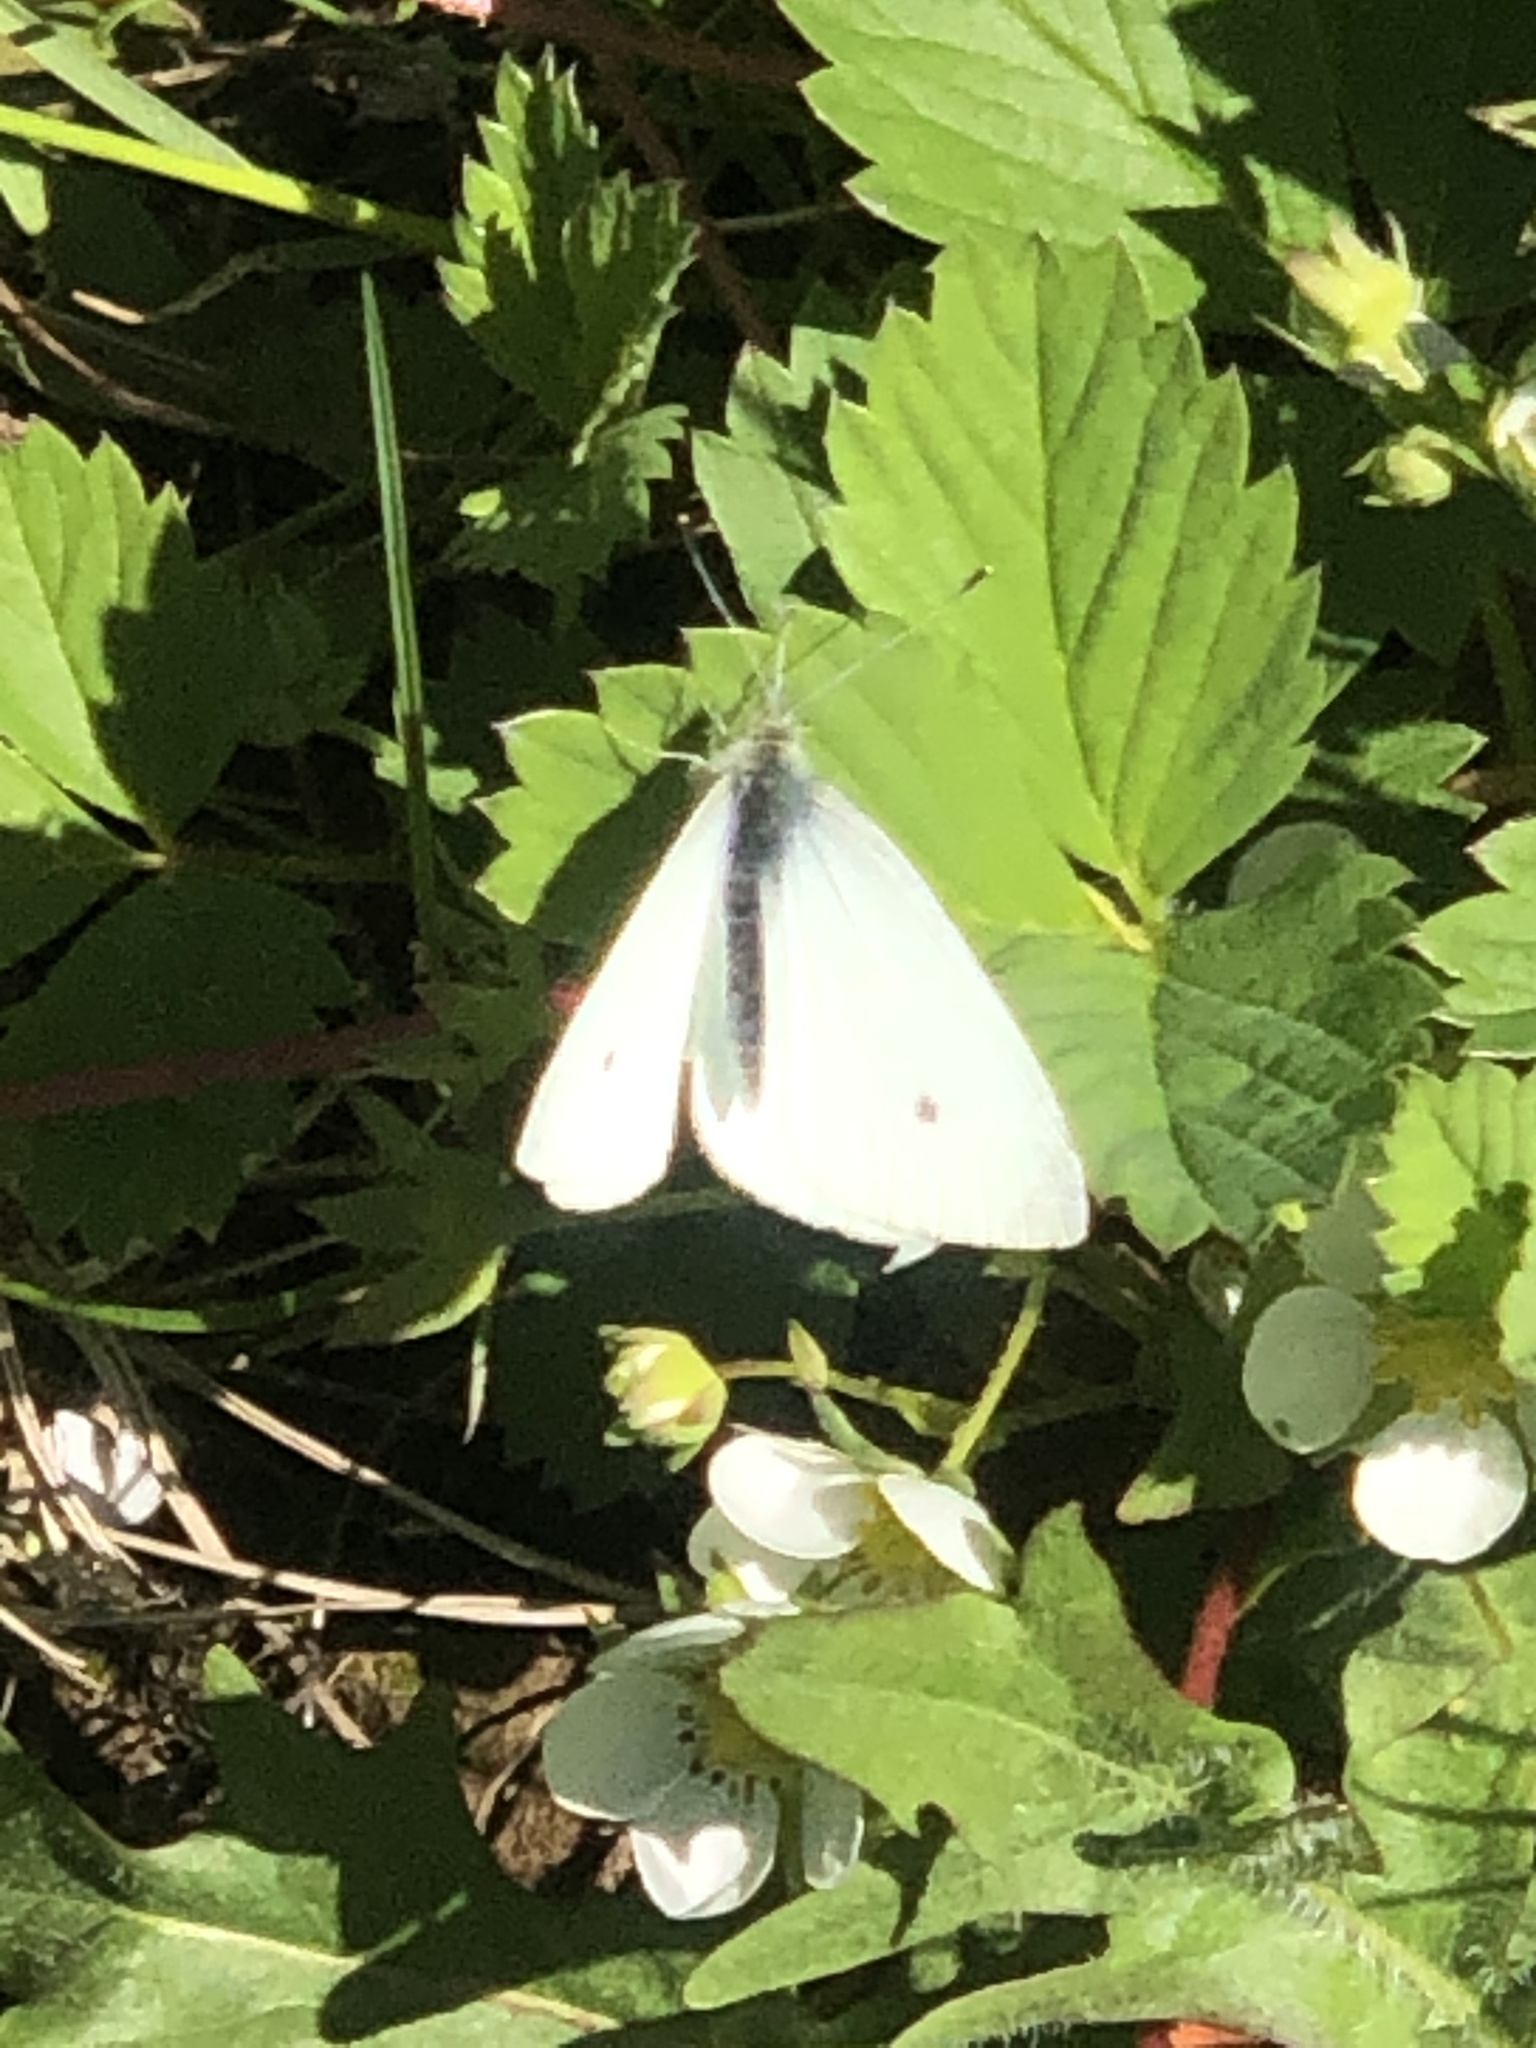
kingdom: Animalia
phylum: Arthropoda
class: Insecta
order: Lepidoptera
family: Pieridae
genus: Pieris
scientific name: Pieris rapae
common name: Small white
